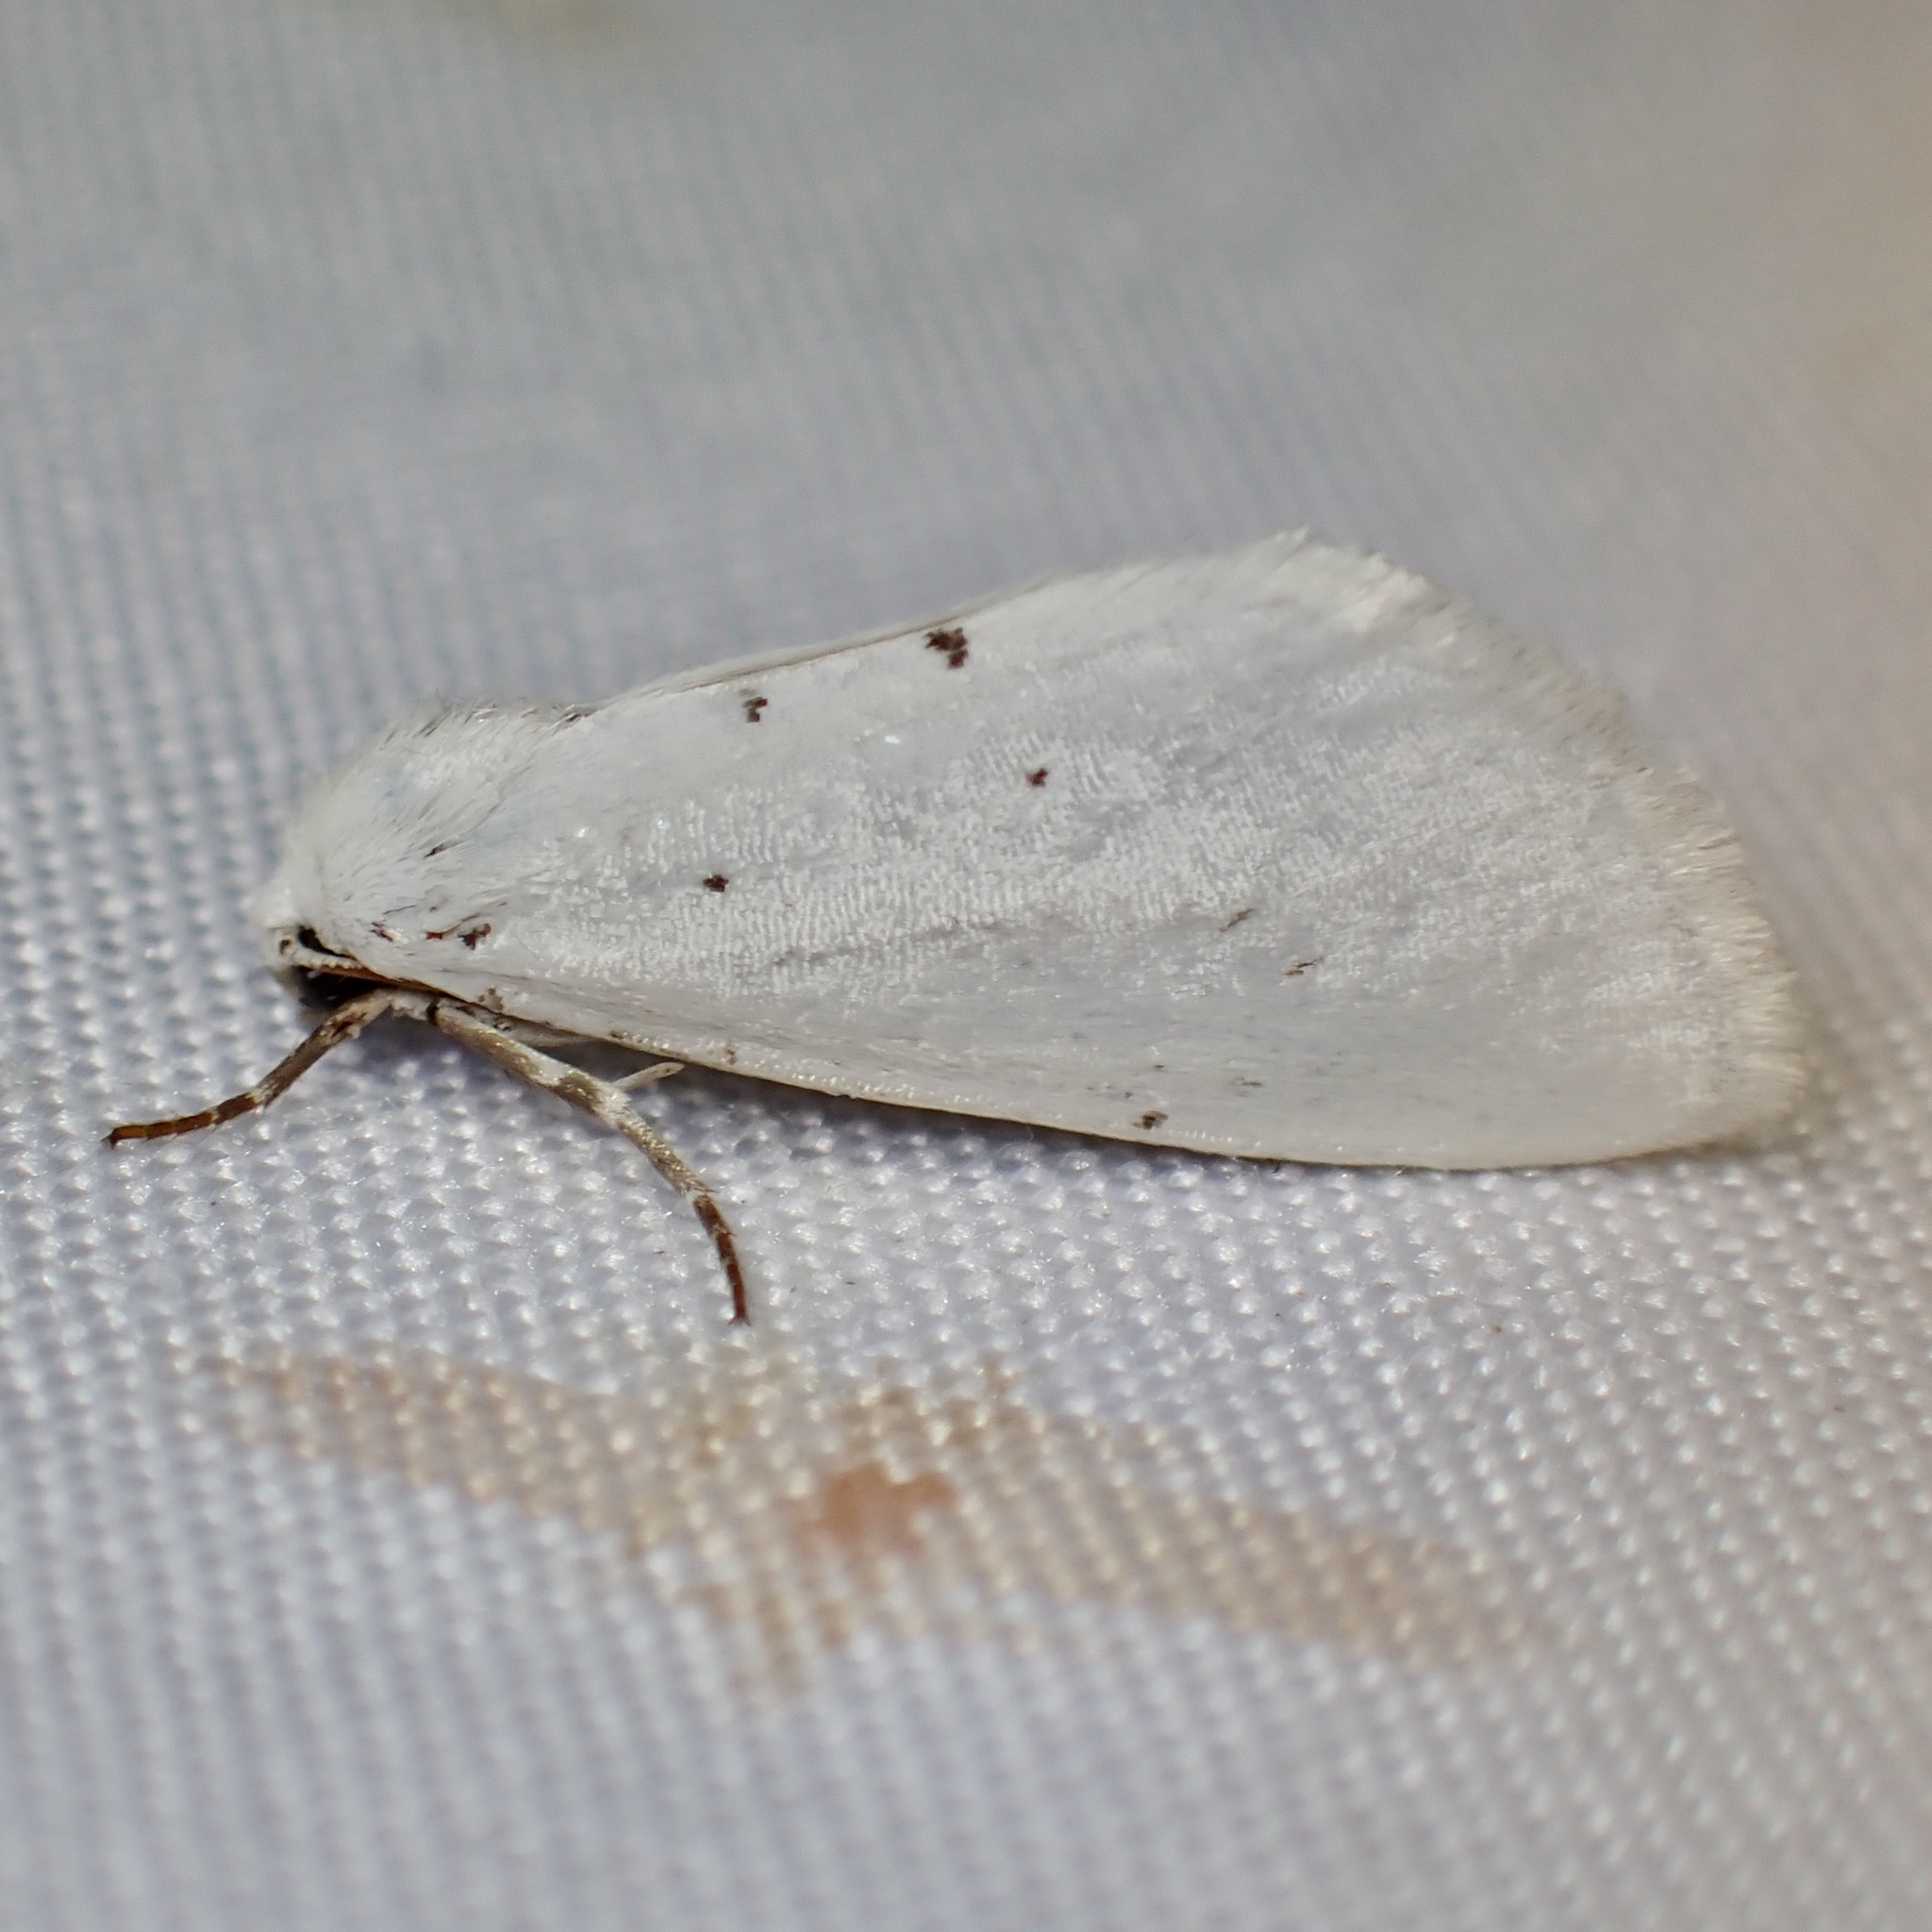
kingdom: Animalia
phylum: Arthropoda
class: Insecta
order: Lepidoptera
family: Noctuidae
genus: Grotella
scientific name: Grotella blanca
